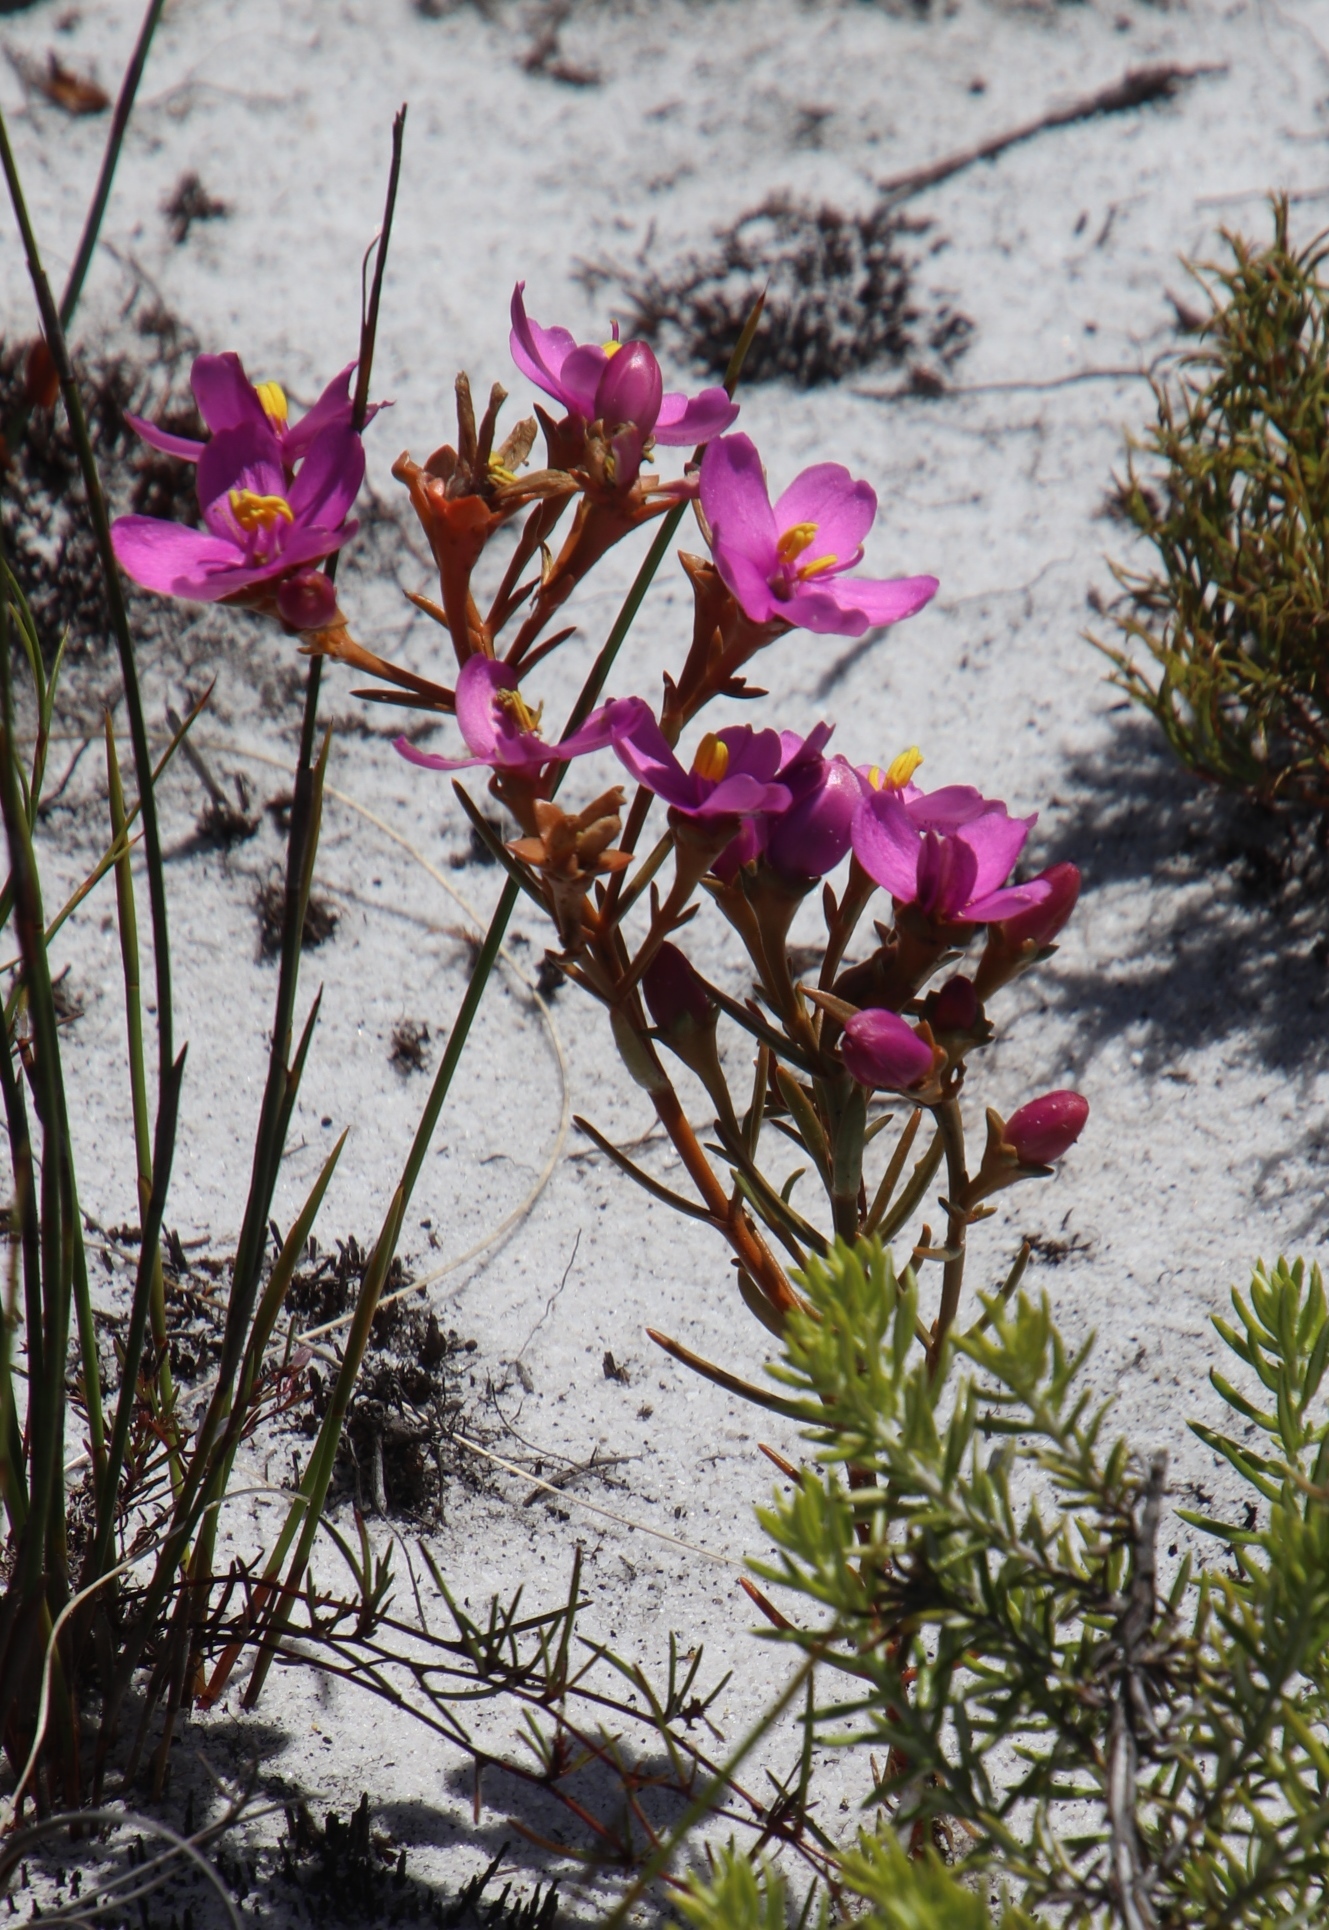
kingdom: Plantae
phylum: Tracheophyta
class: Magnoliopsida
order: Gentianales
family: Gentianaceae
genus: Chironia
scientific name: Chironia linoides
